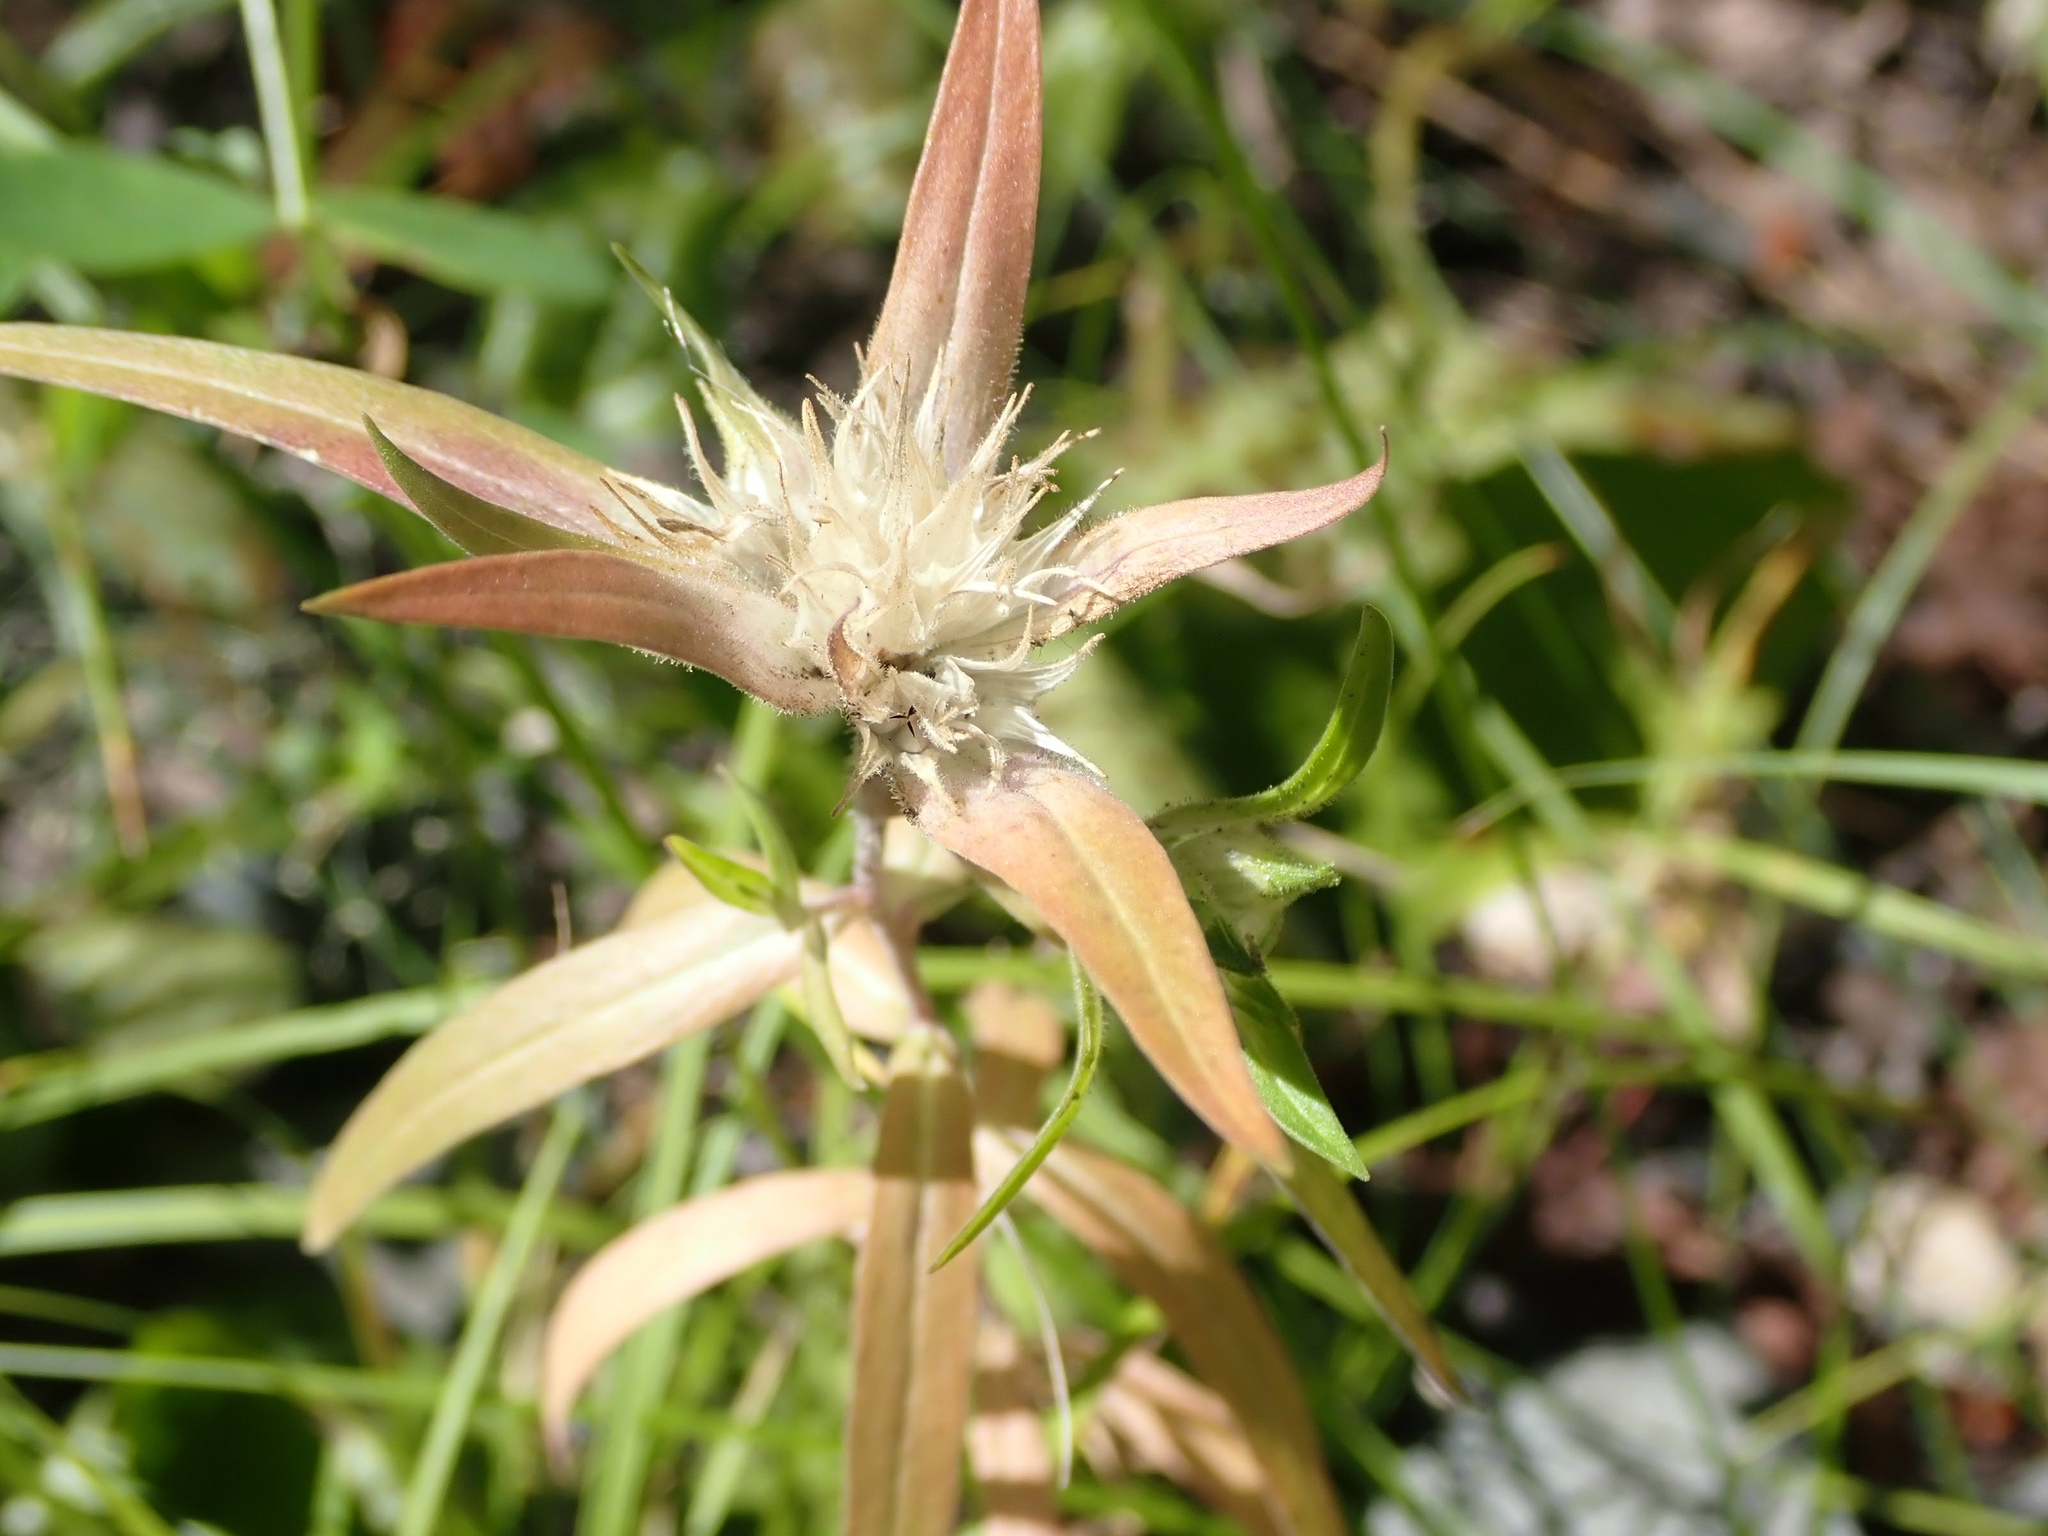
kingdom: Plantae
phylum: Tracheophyta
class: Magnoliopsida
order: Ericales
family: Polemoniaceae
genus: Collomia
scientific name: Collomia linearis
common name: Tiny trumpet
